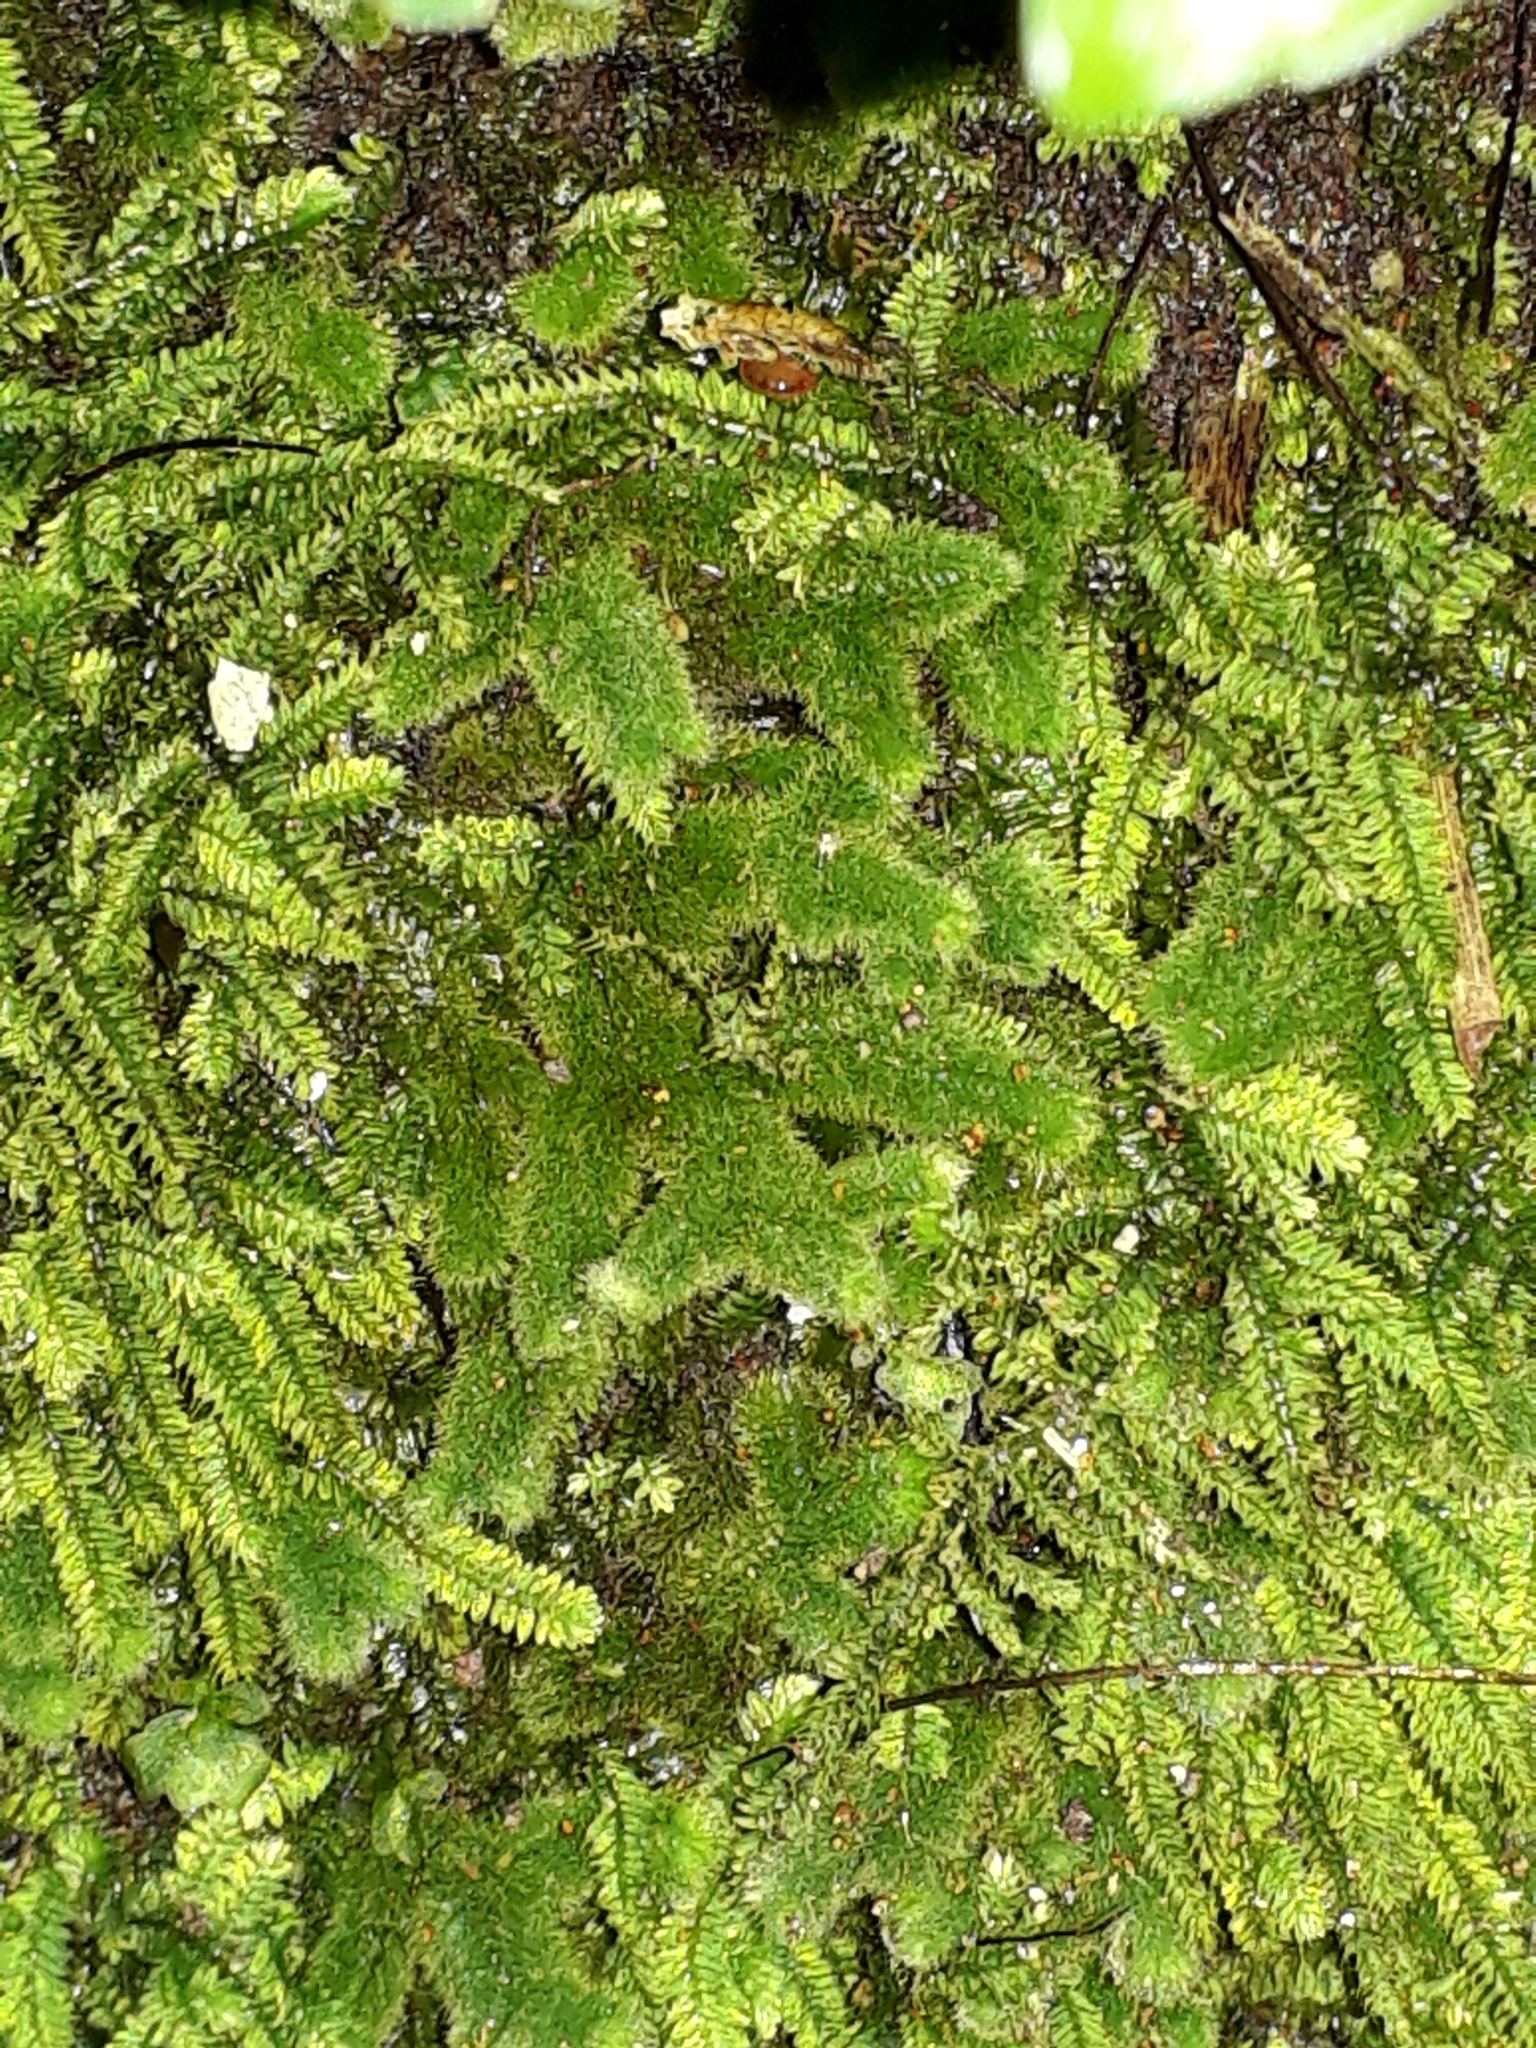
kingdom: Plantae
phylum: Marchantiophyta
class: Jungermanniopsida
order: Jungermanniales
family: Trichocoleaceae
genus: Leiomitra
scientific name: Leiomitra lanata
